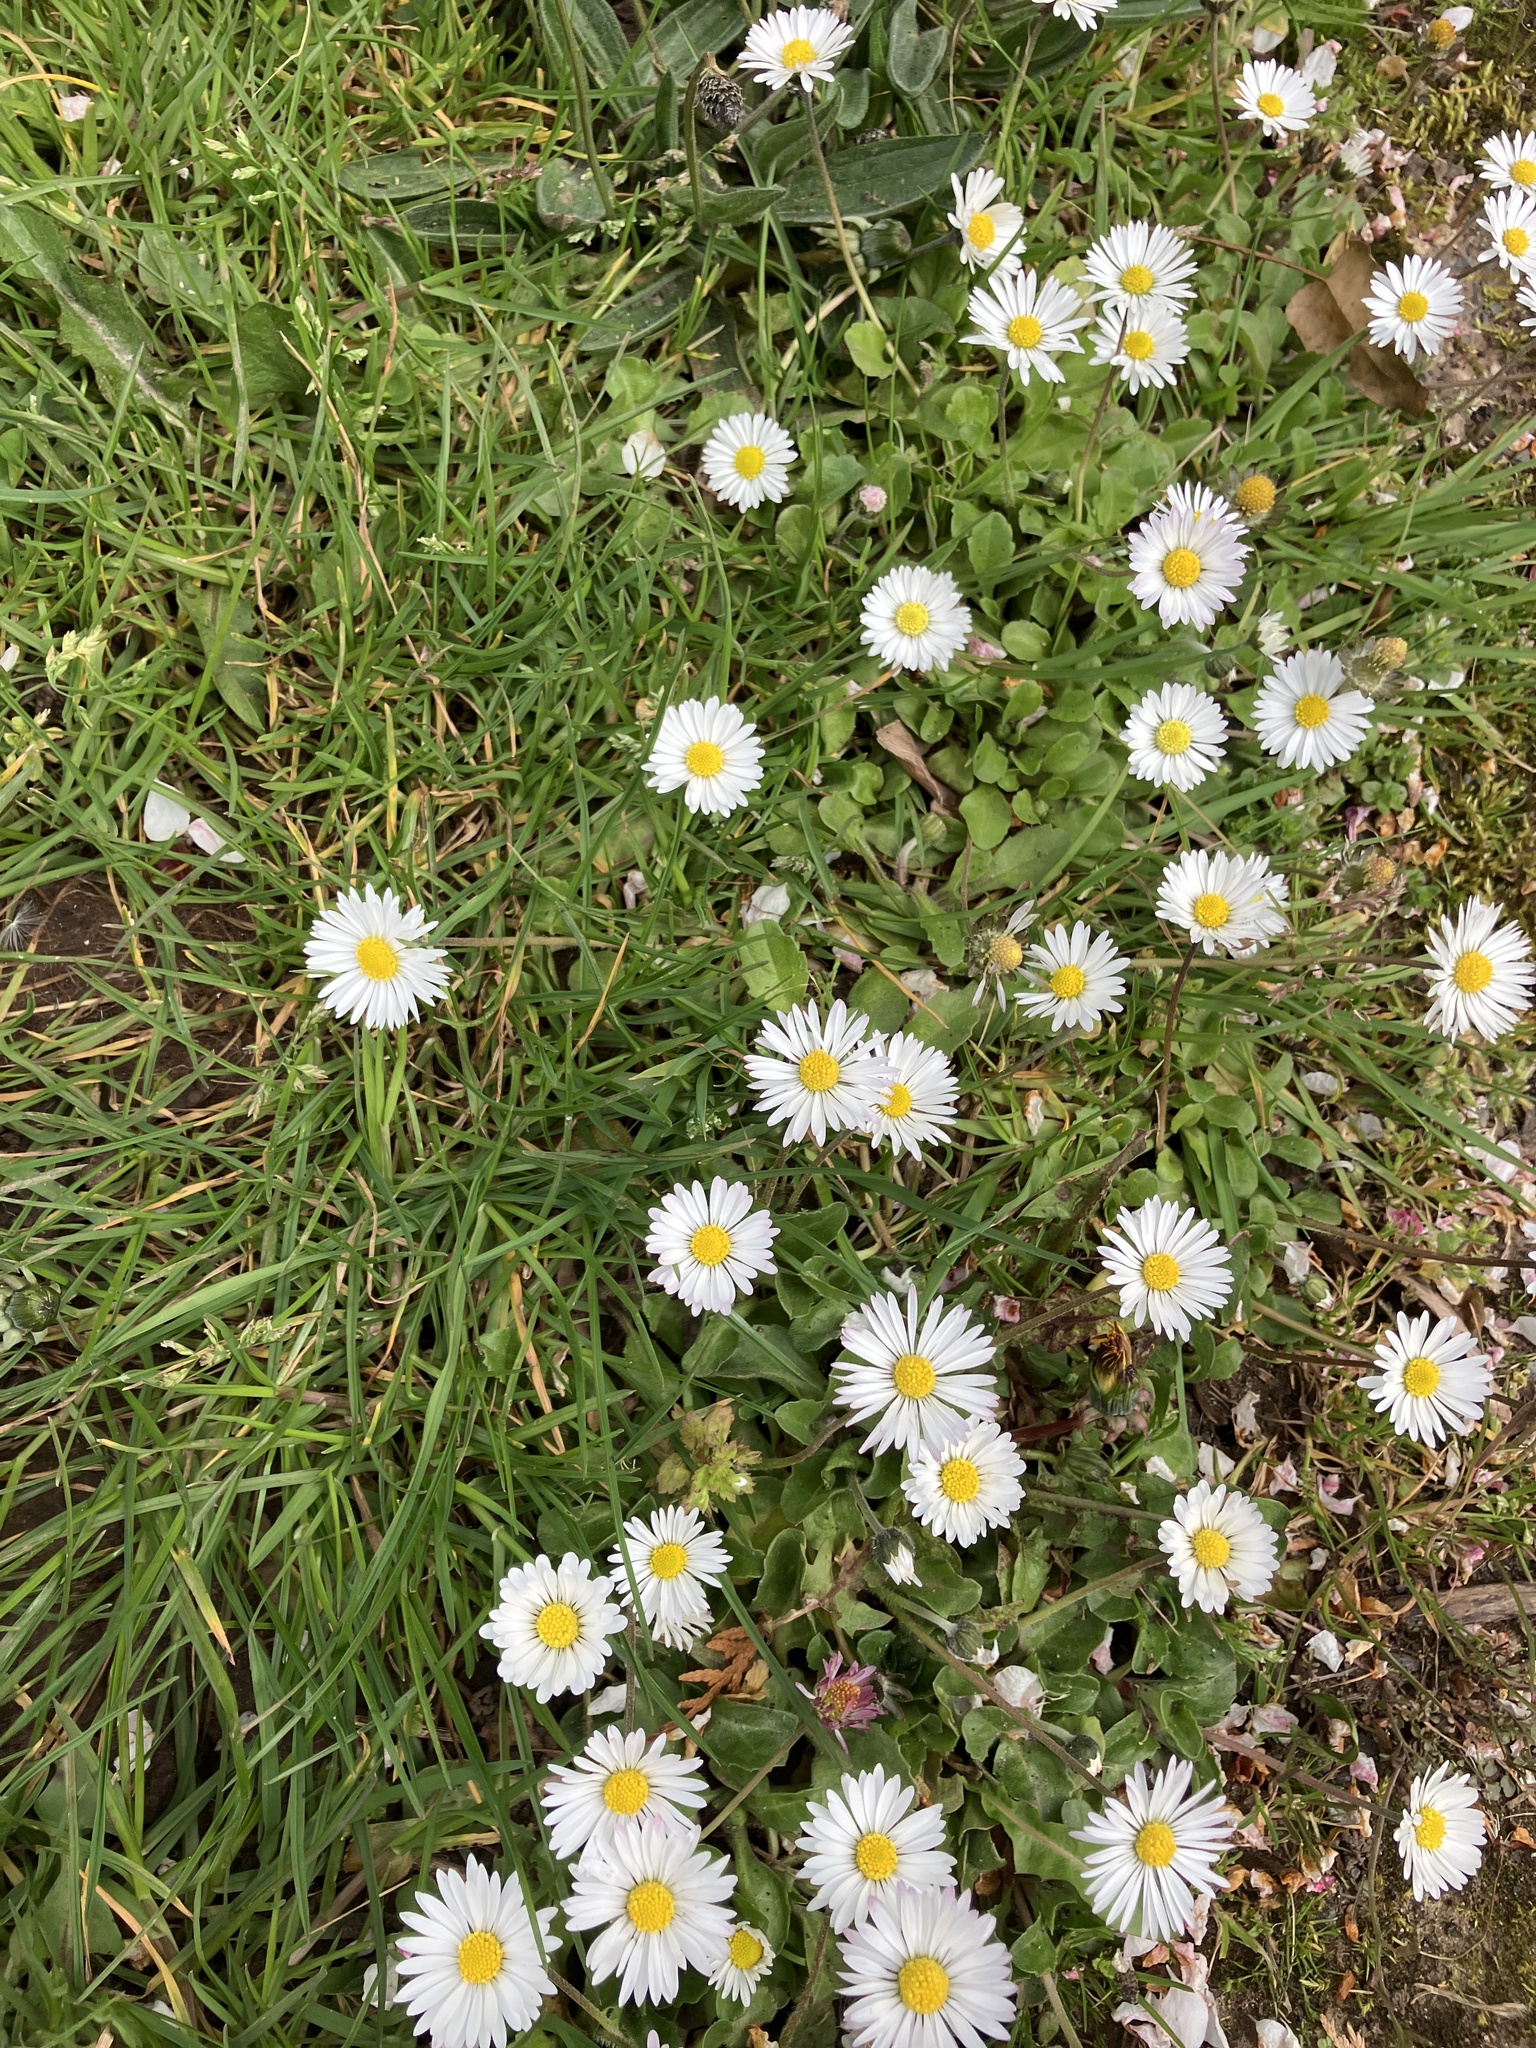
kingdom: Plantae
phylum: Tracheophyta
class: Magnoliopsida
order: Asterales
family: Asteraceae
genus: Bellis
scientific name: Bellis perennis
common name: Lawndaisy
